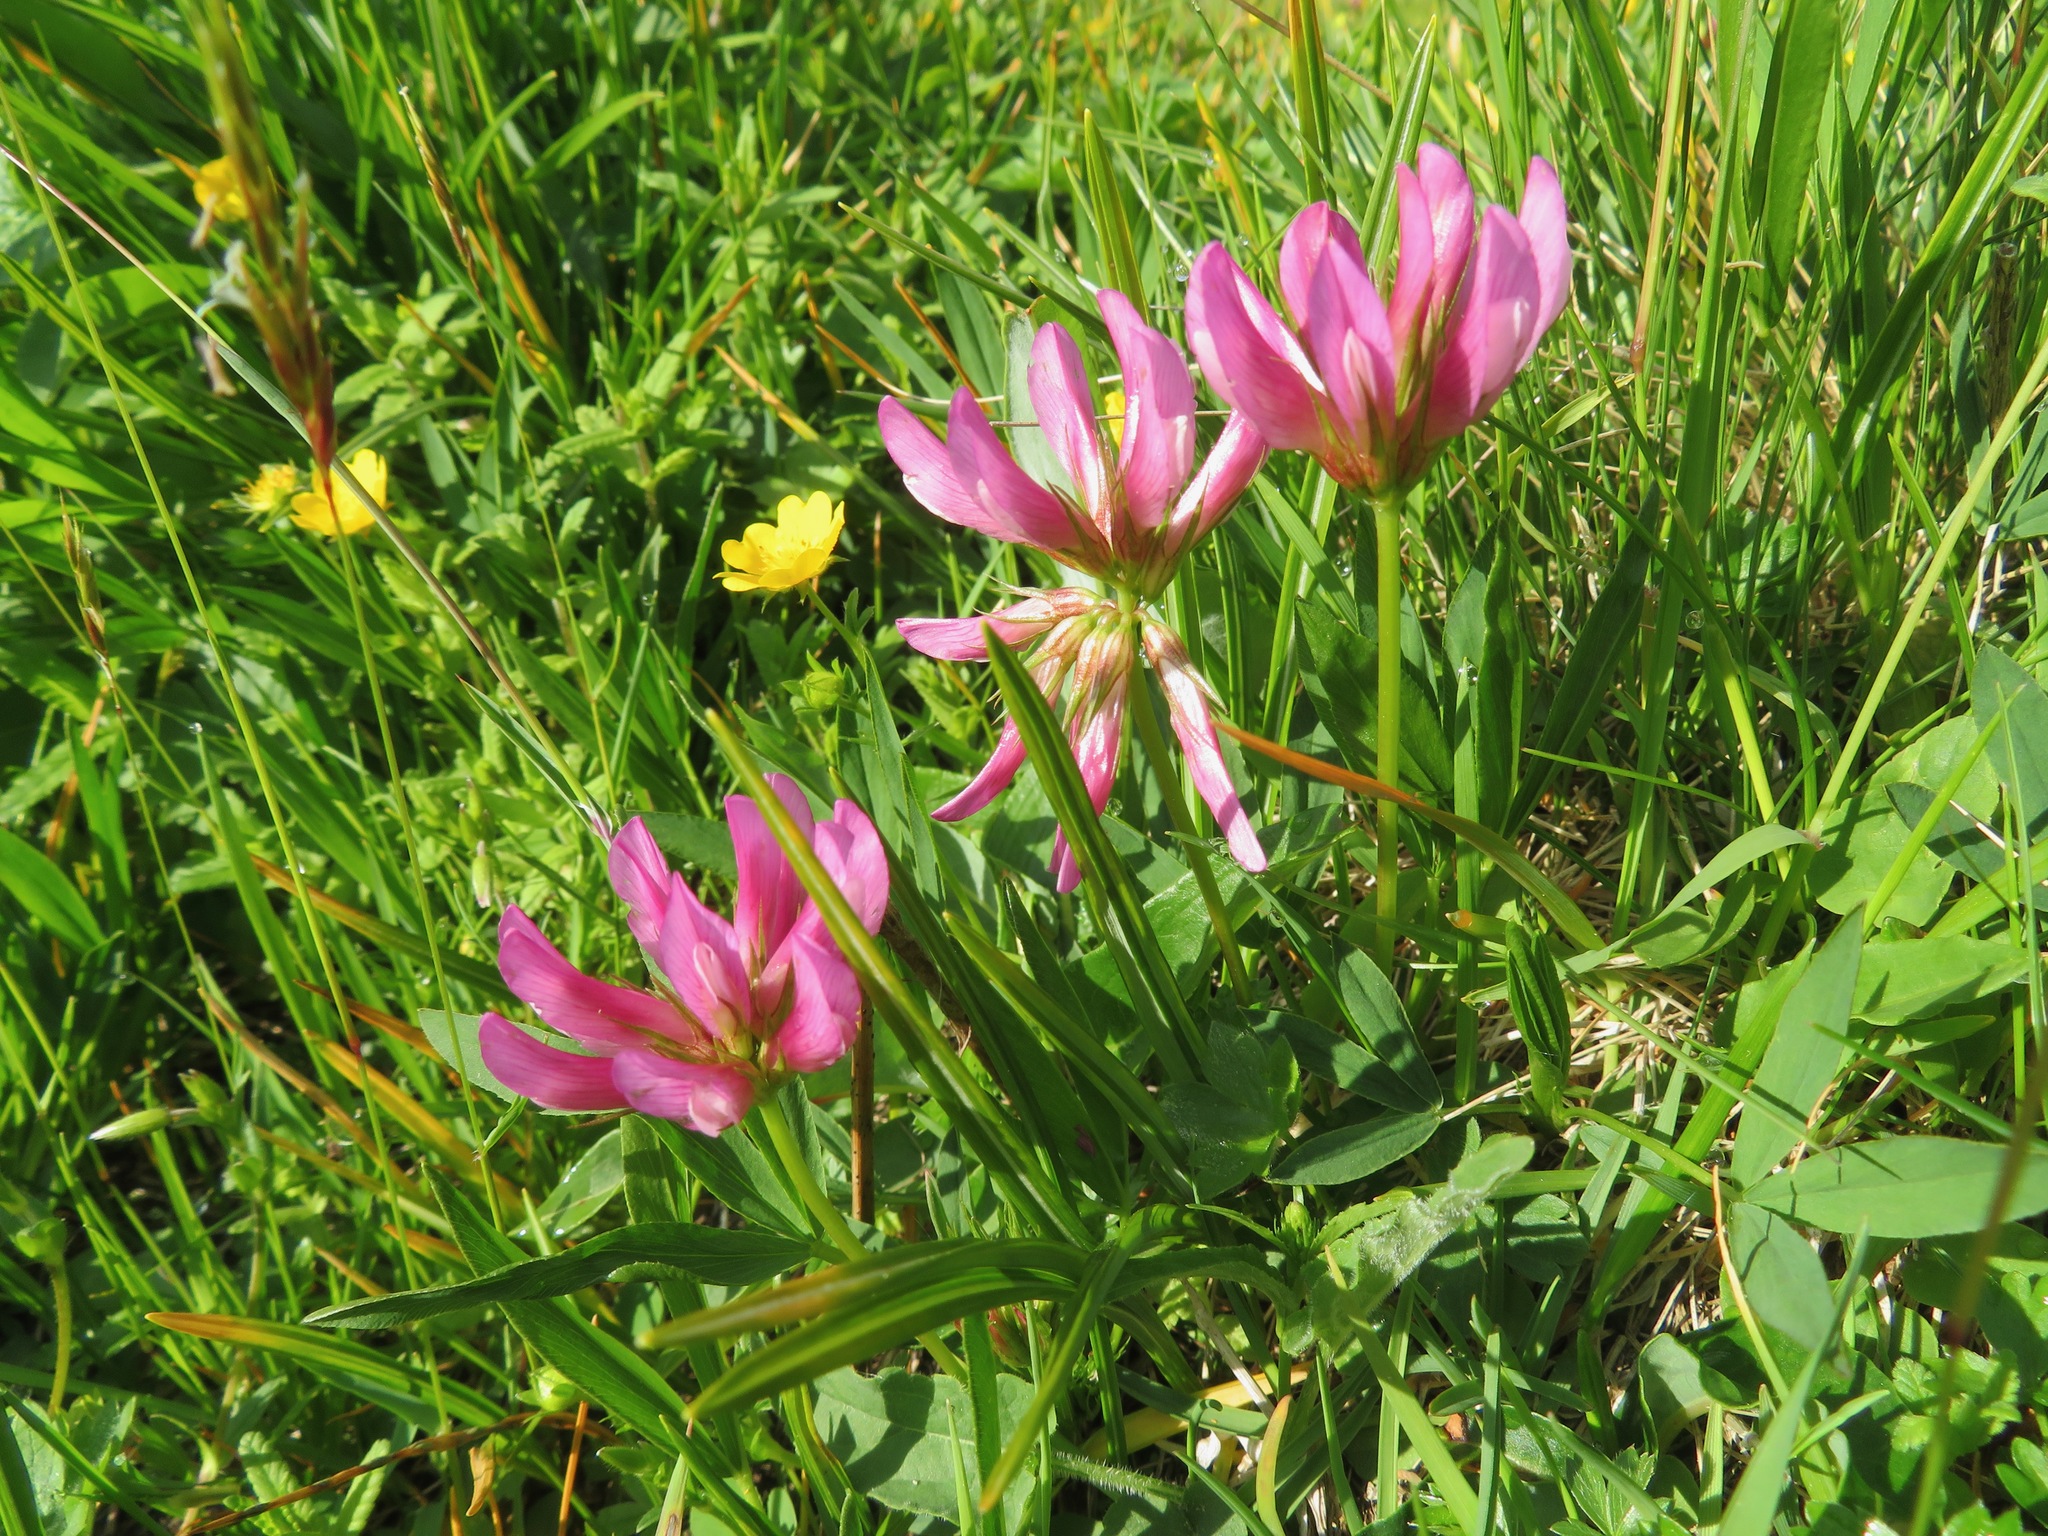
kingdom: Plantae
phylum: Tracheophyta
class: Magnoliopsida
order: Fabales
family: Fabaceae
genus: Trifolium
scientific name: Trifolium alpinum
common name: Alpine clover
